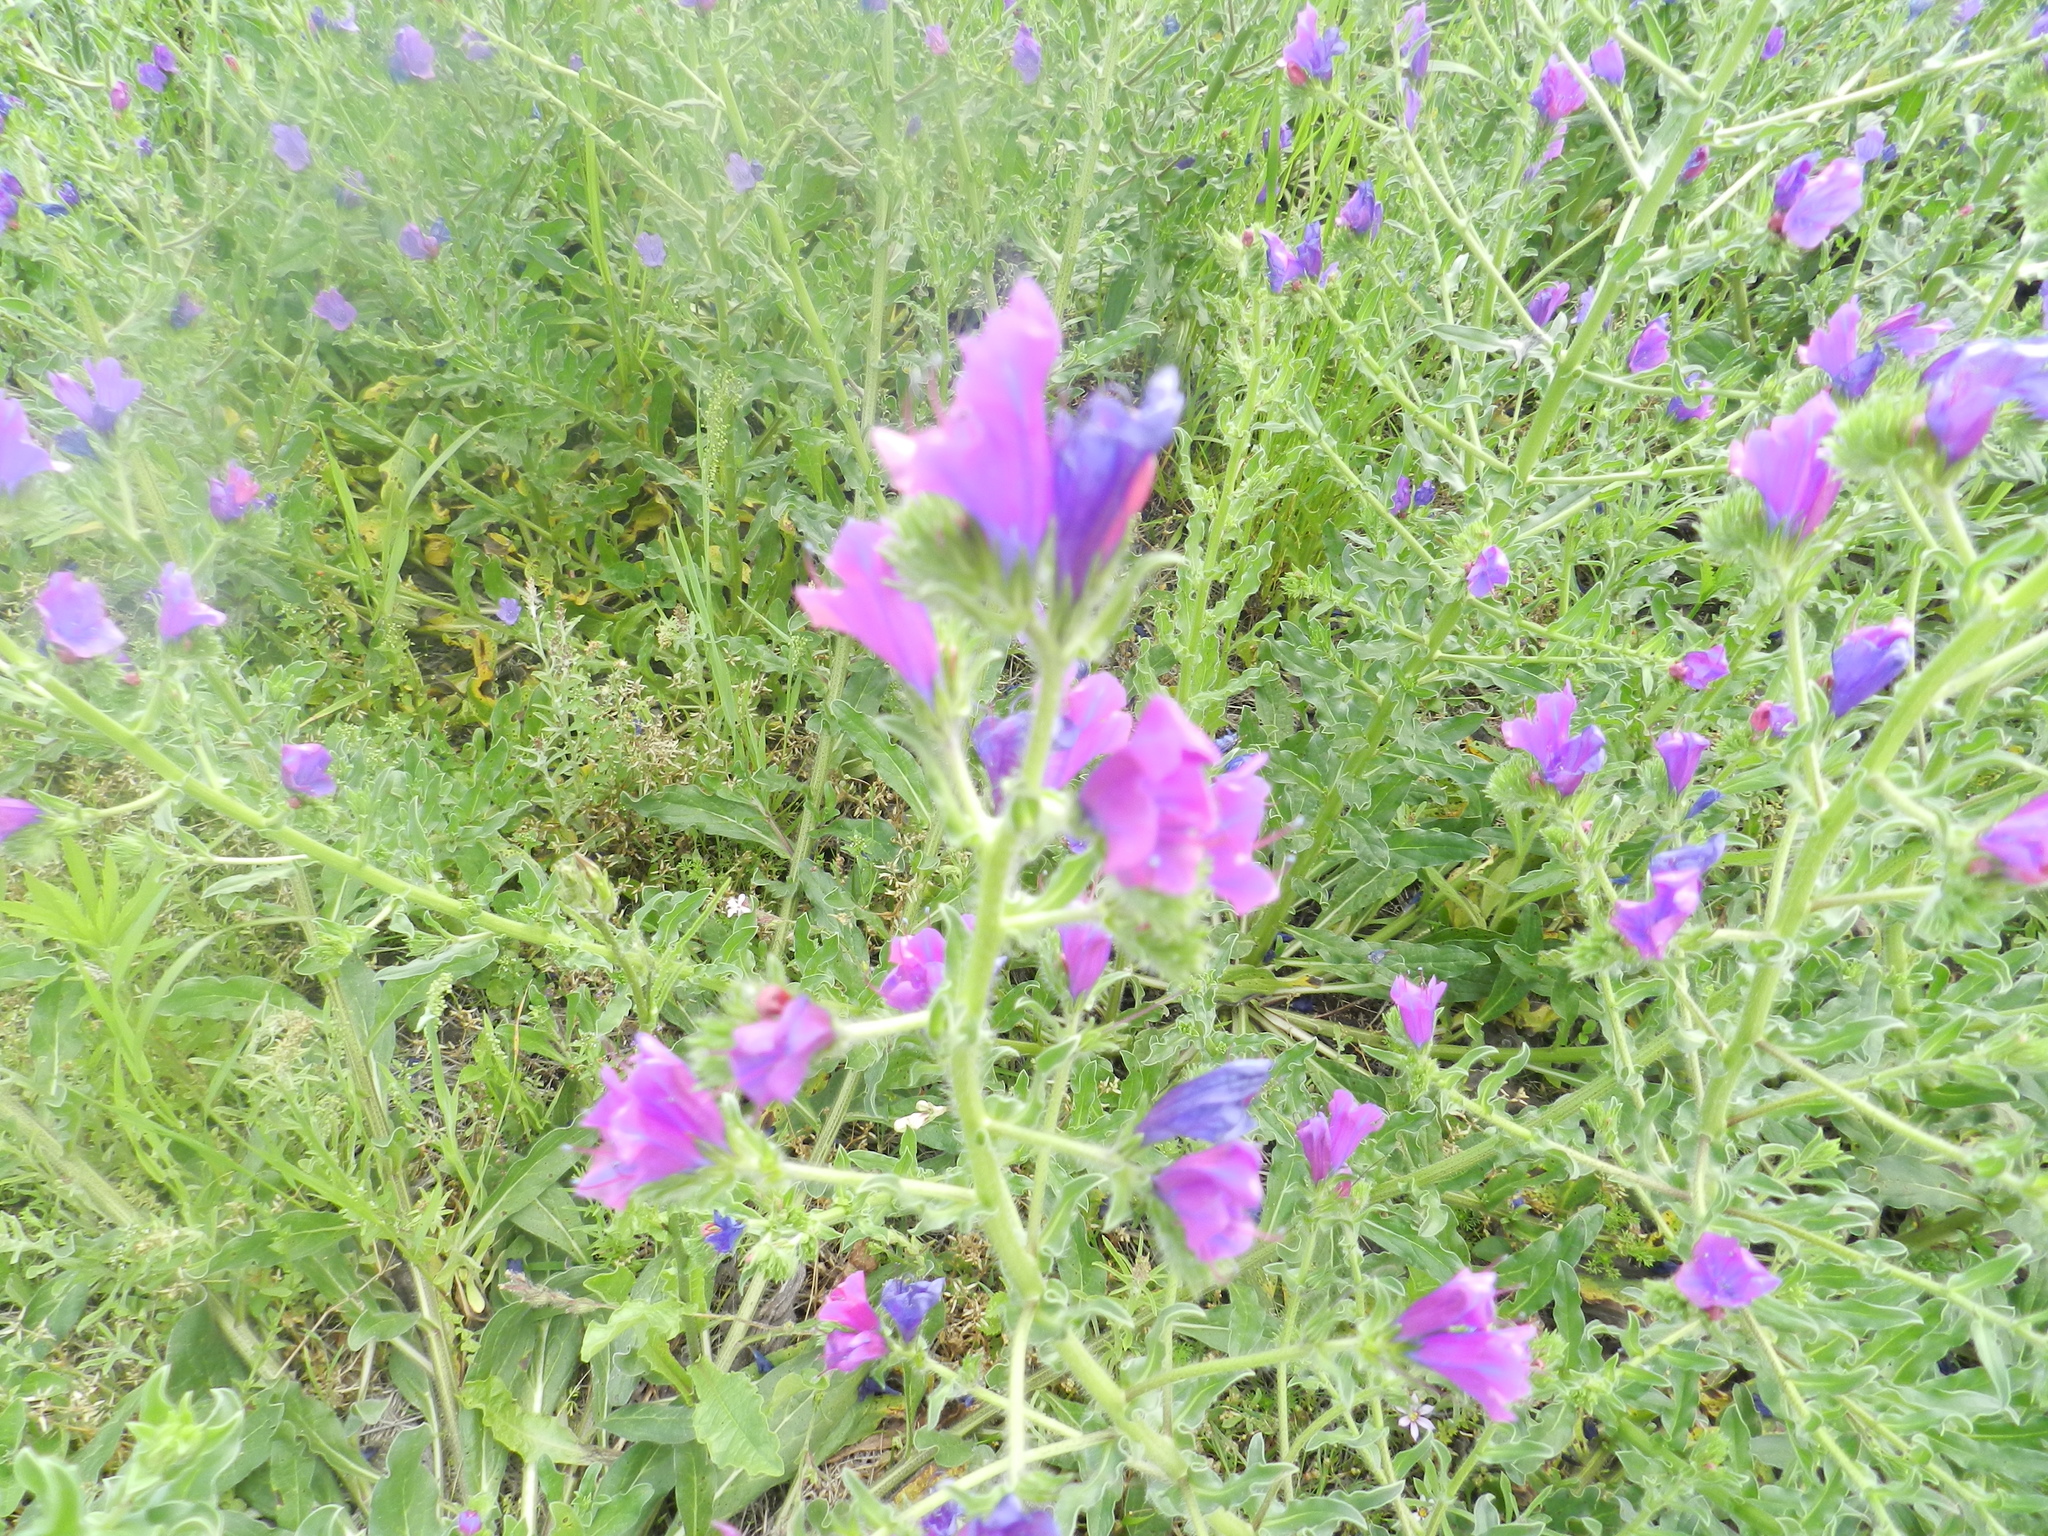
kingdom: Plantae
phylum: Tracheophyta
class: Magnoliopsida
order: Boraginales
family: Boraginaceae
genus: Echium
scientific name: Echium plantagineum
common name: Purple viper's-bugloss
